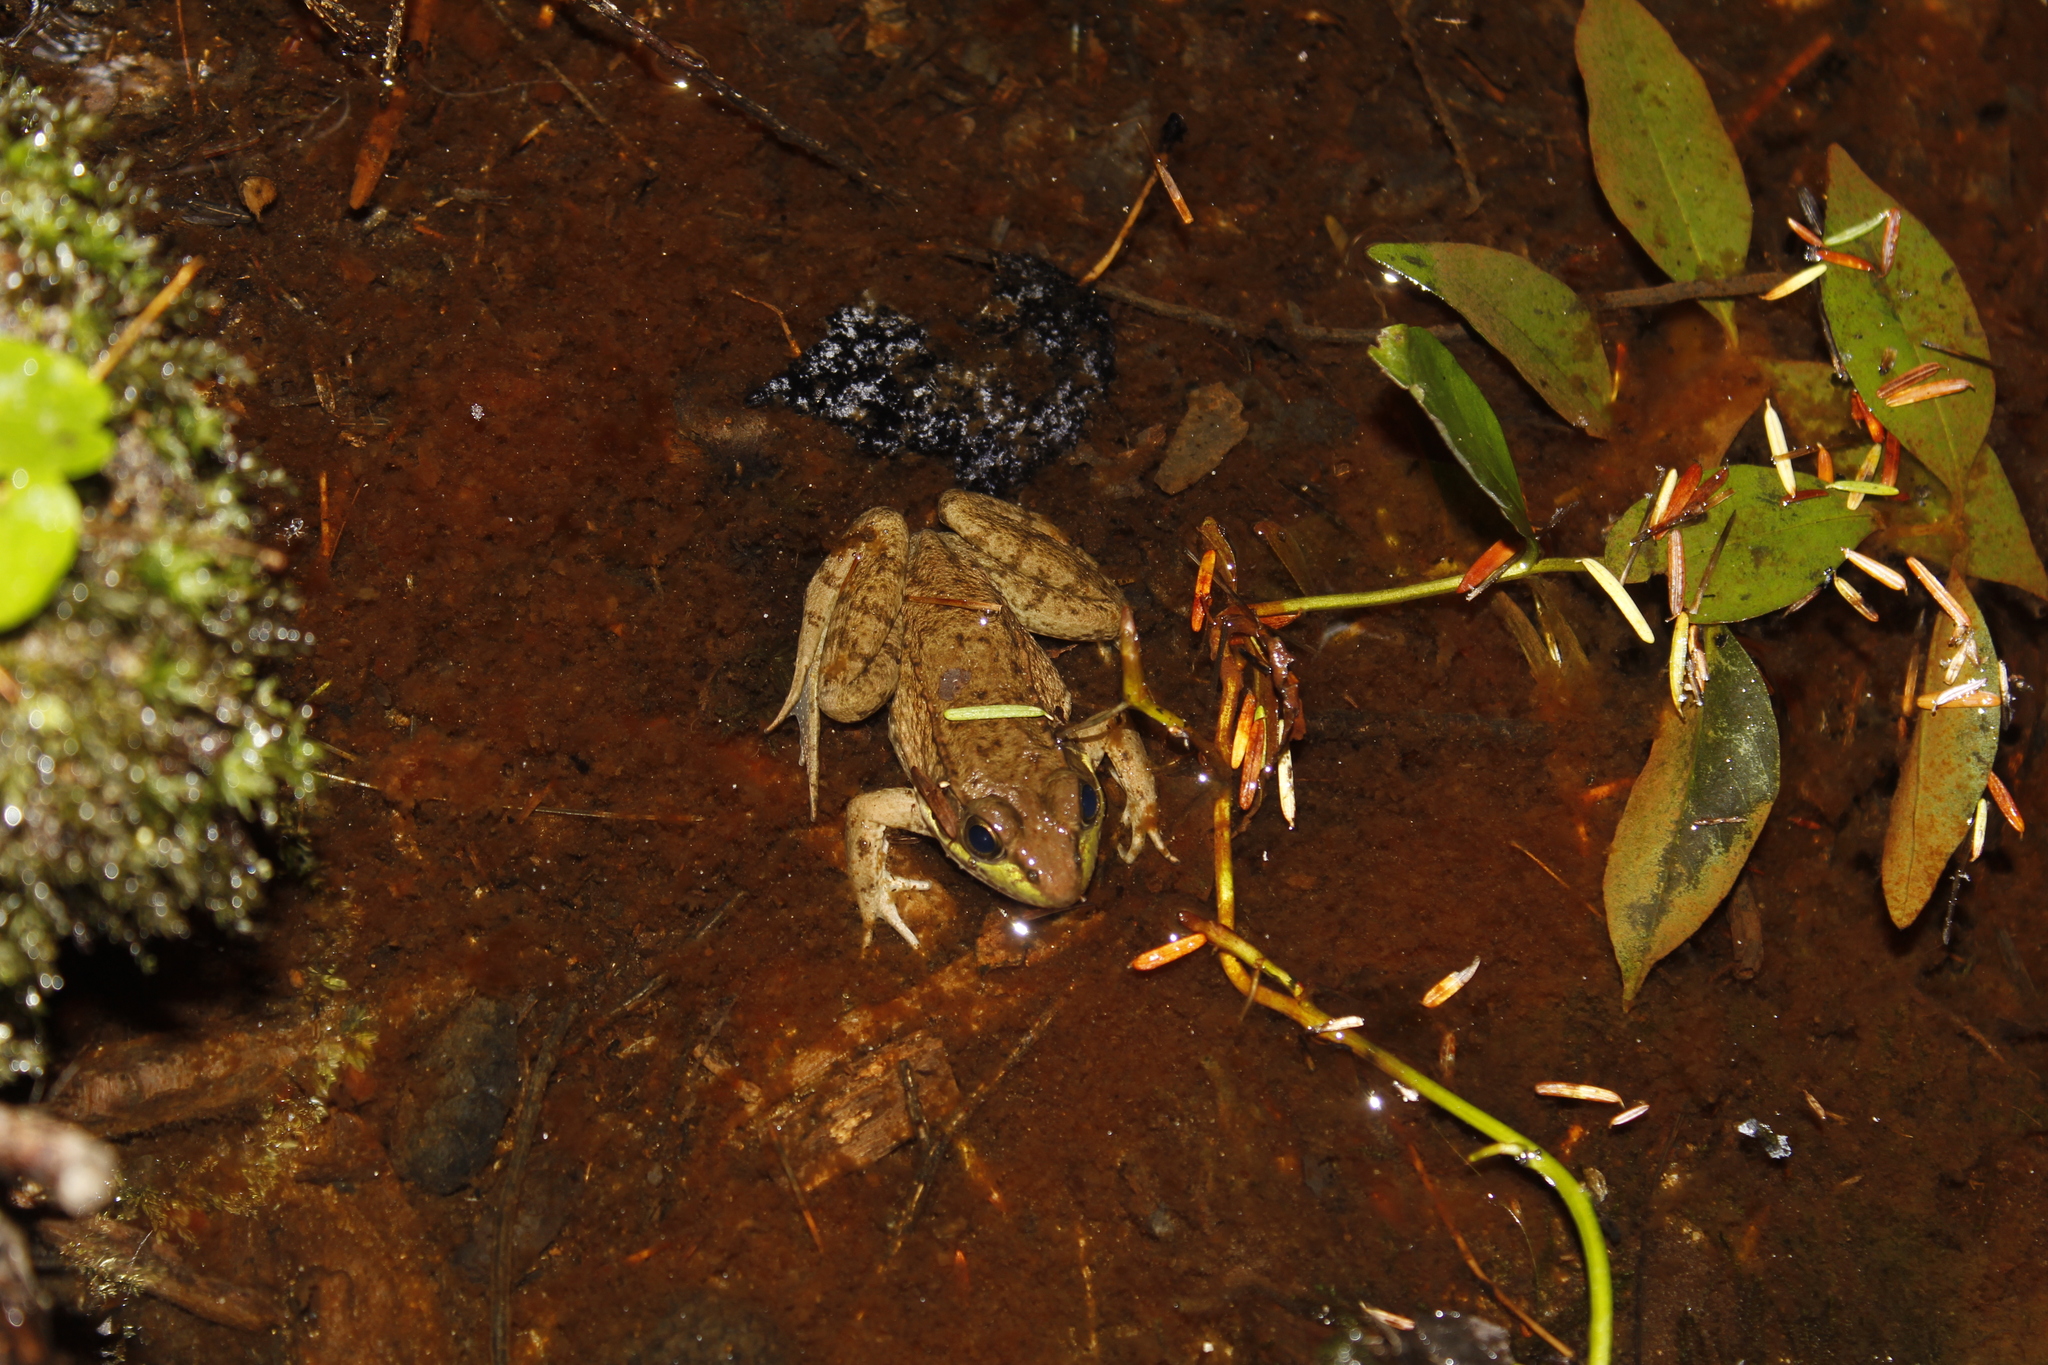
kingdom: Animalia
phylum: Chordata
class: Amphibia
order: Anura
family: Ranidae
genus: Lithobates
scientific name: Lithobates clamitans
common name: Green frog
